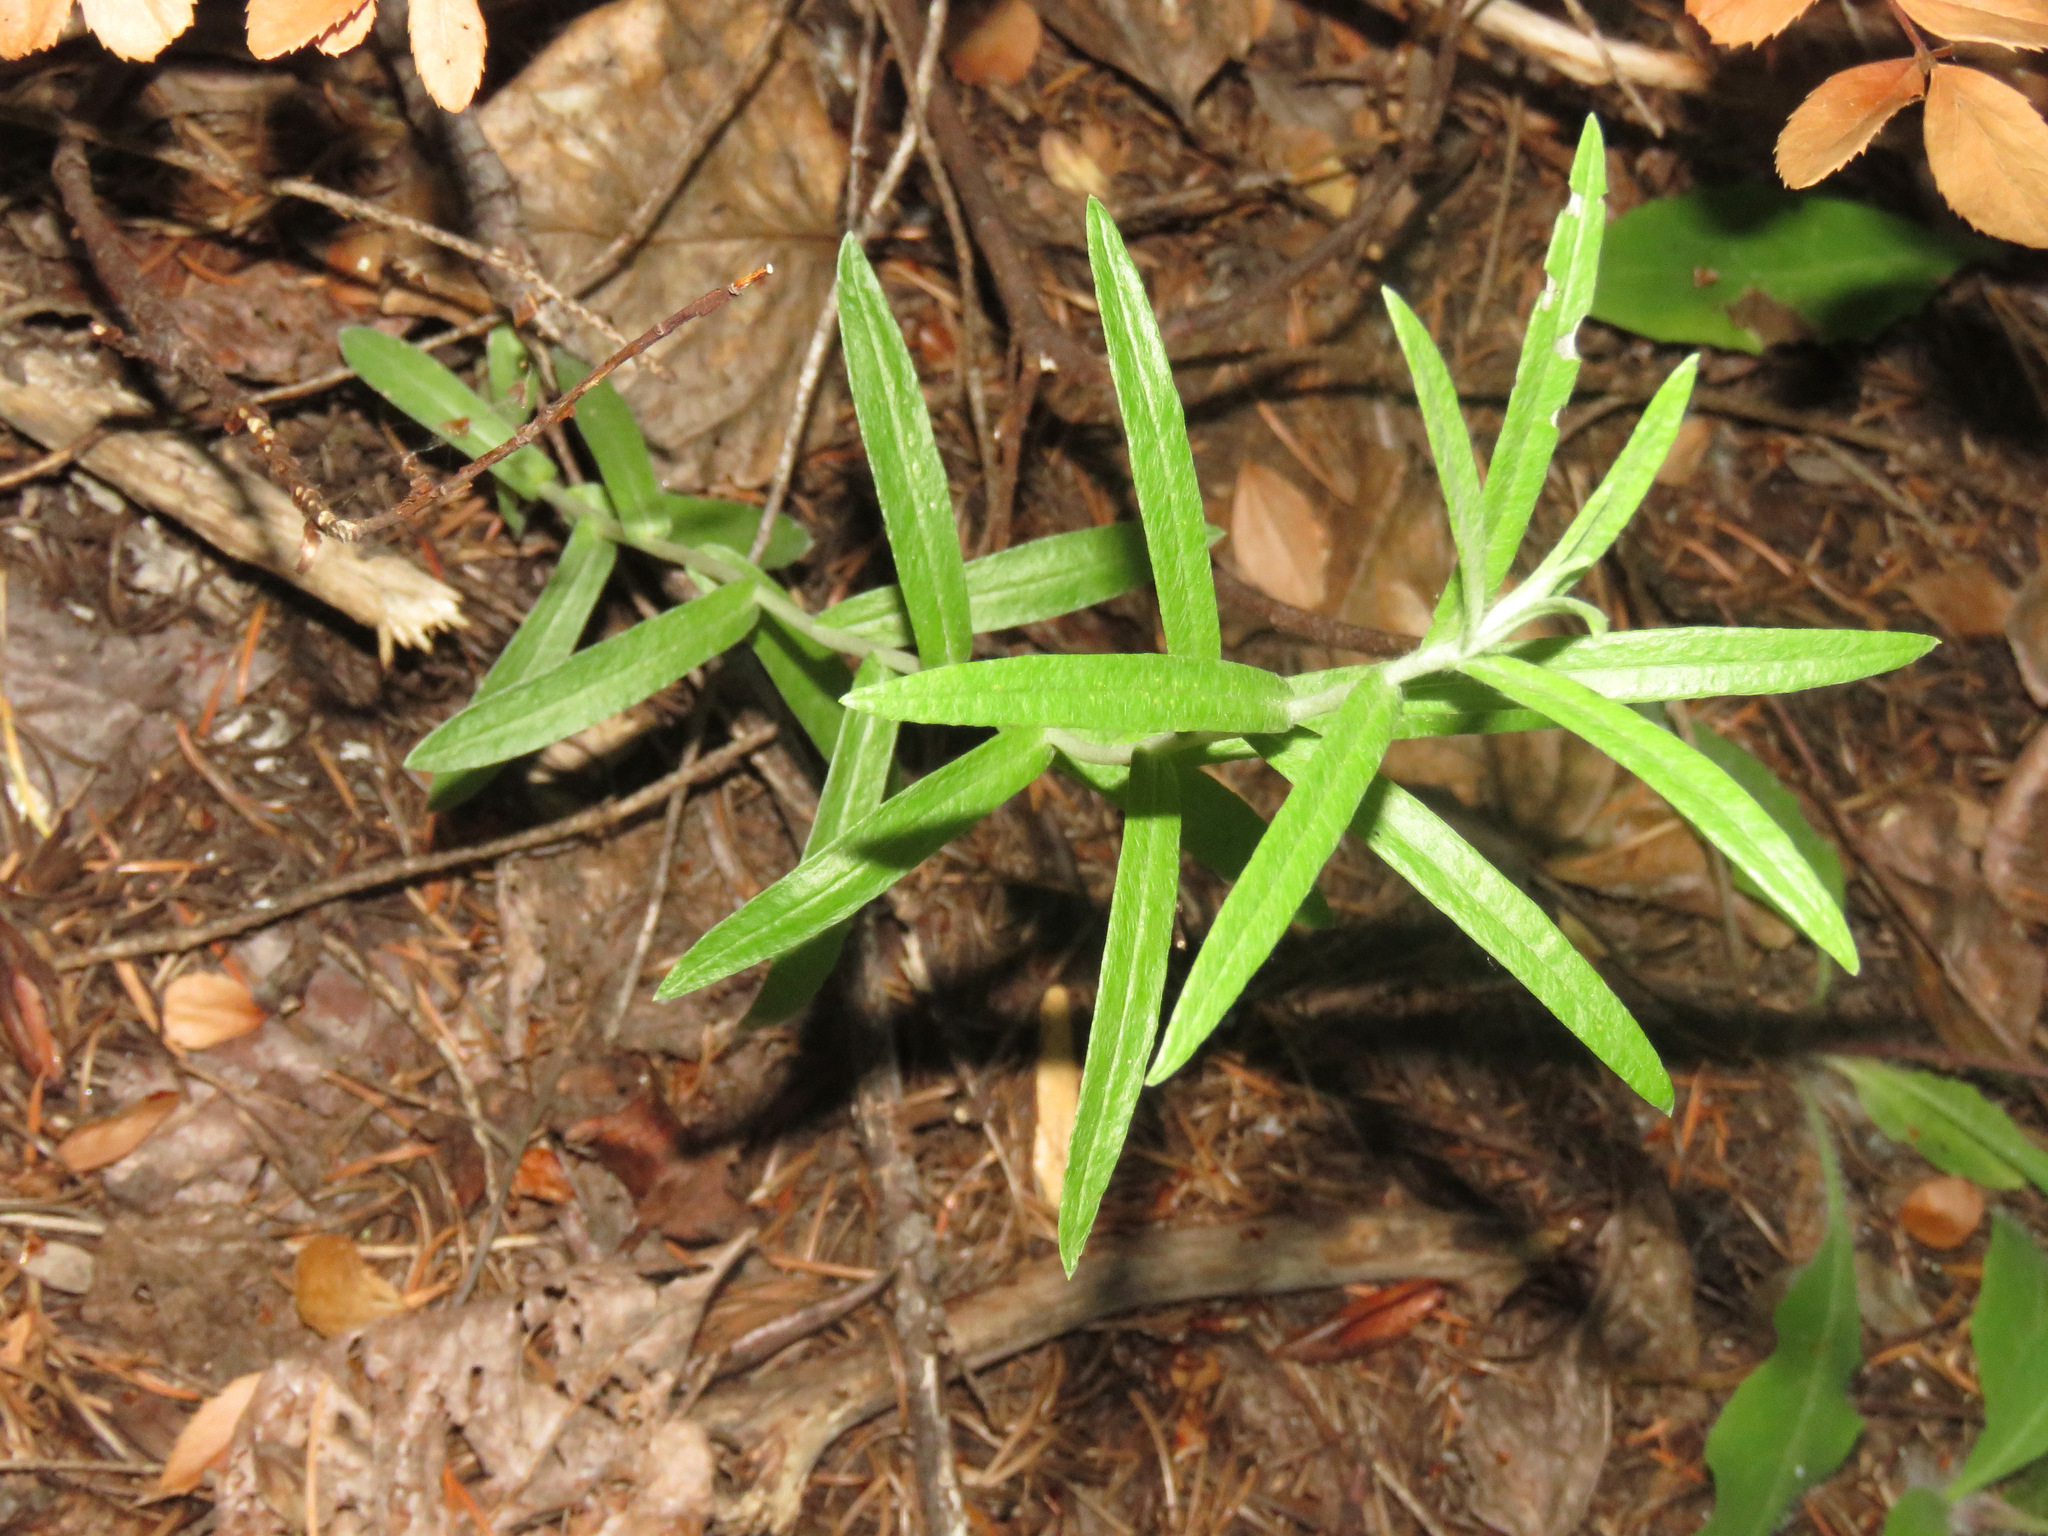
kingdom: Plantae
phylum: Tracheophyta
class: Magnoliopsida
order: Asterales
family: Asteraceae
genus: Anaphalis
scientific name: Anaphalis margaritacea
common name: Pearly everlasting
